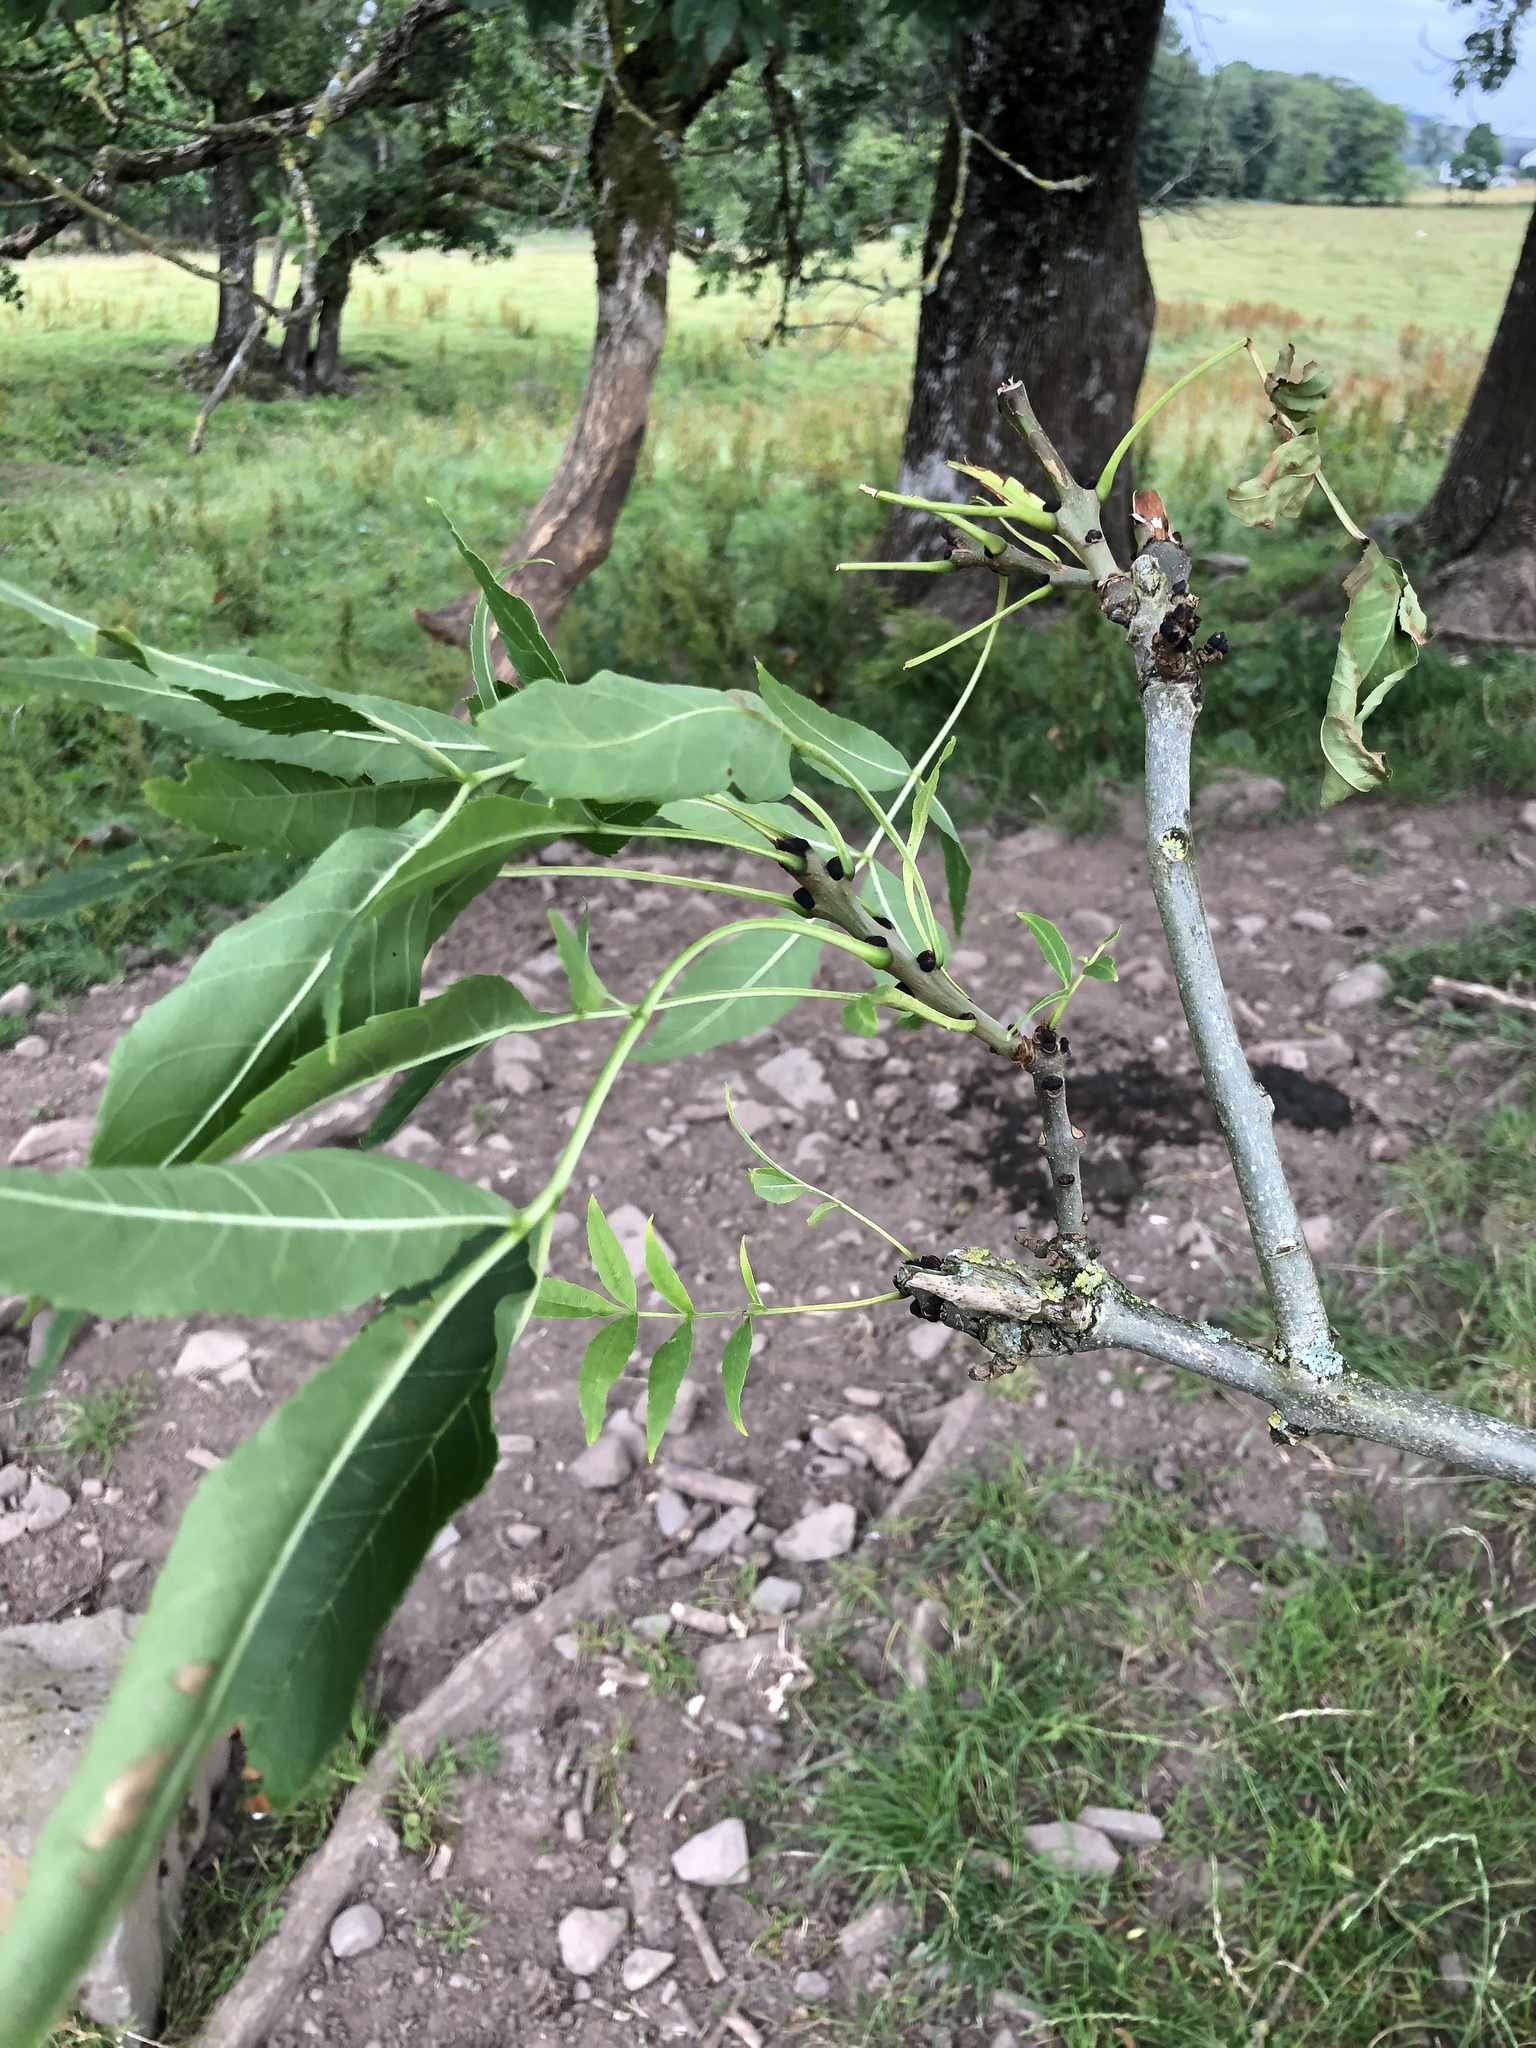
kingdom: Plantae
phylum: Tracheophyta
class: Magnoliopsida
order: Lamiales
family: Oleaceae
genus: Fraxinus
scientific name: Fraxinus excelsior
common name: European ash
